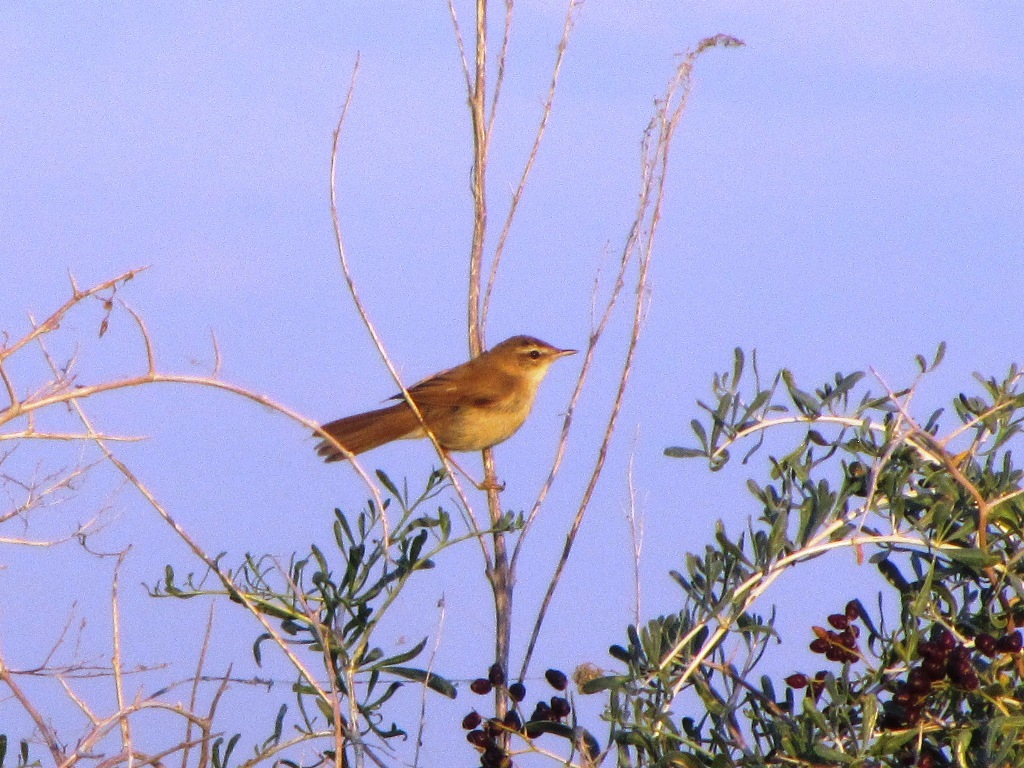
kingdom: Animalia
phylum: Chordata
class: Aves
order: Passeriformes
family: Acrocephalidae
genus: Acrocephalus
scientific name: Acrocephalus agricola
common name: Paddyfield warbler
